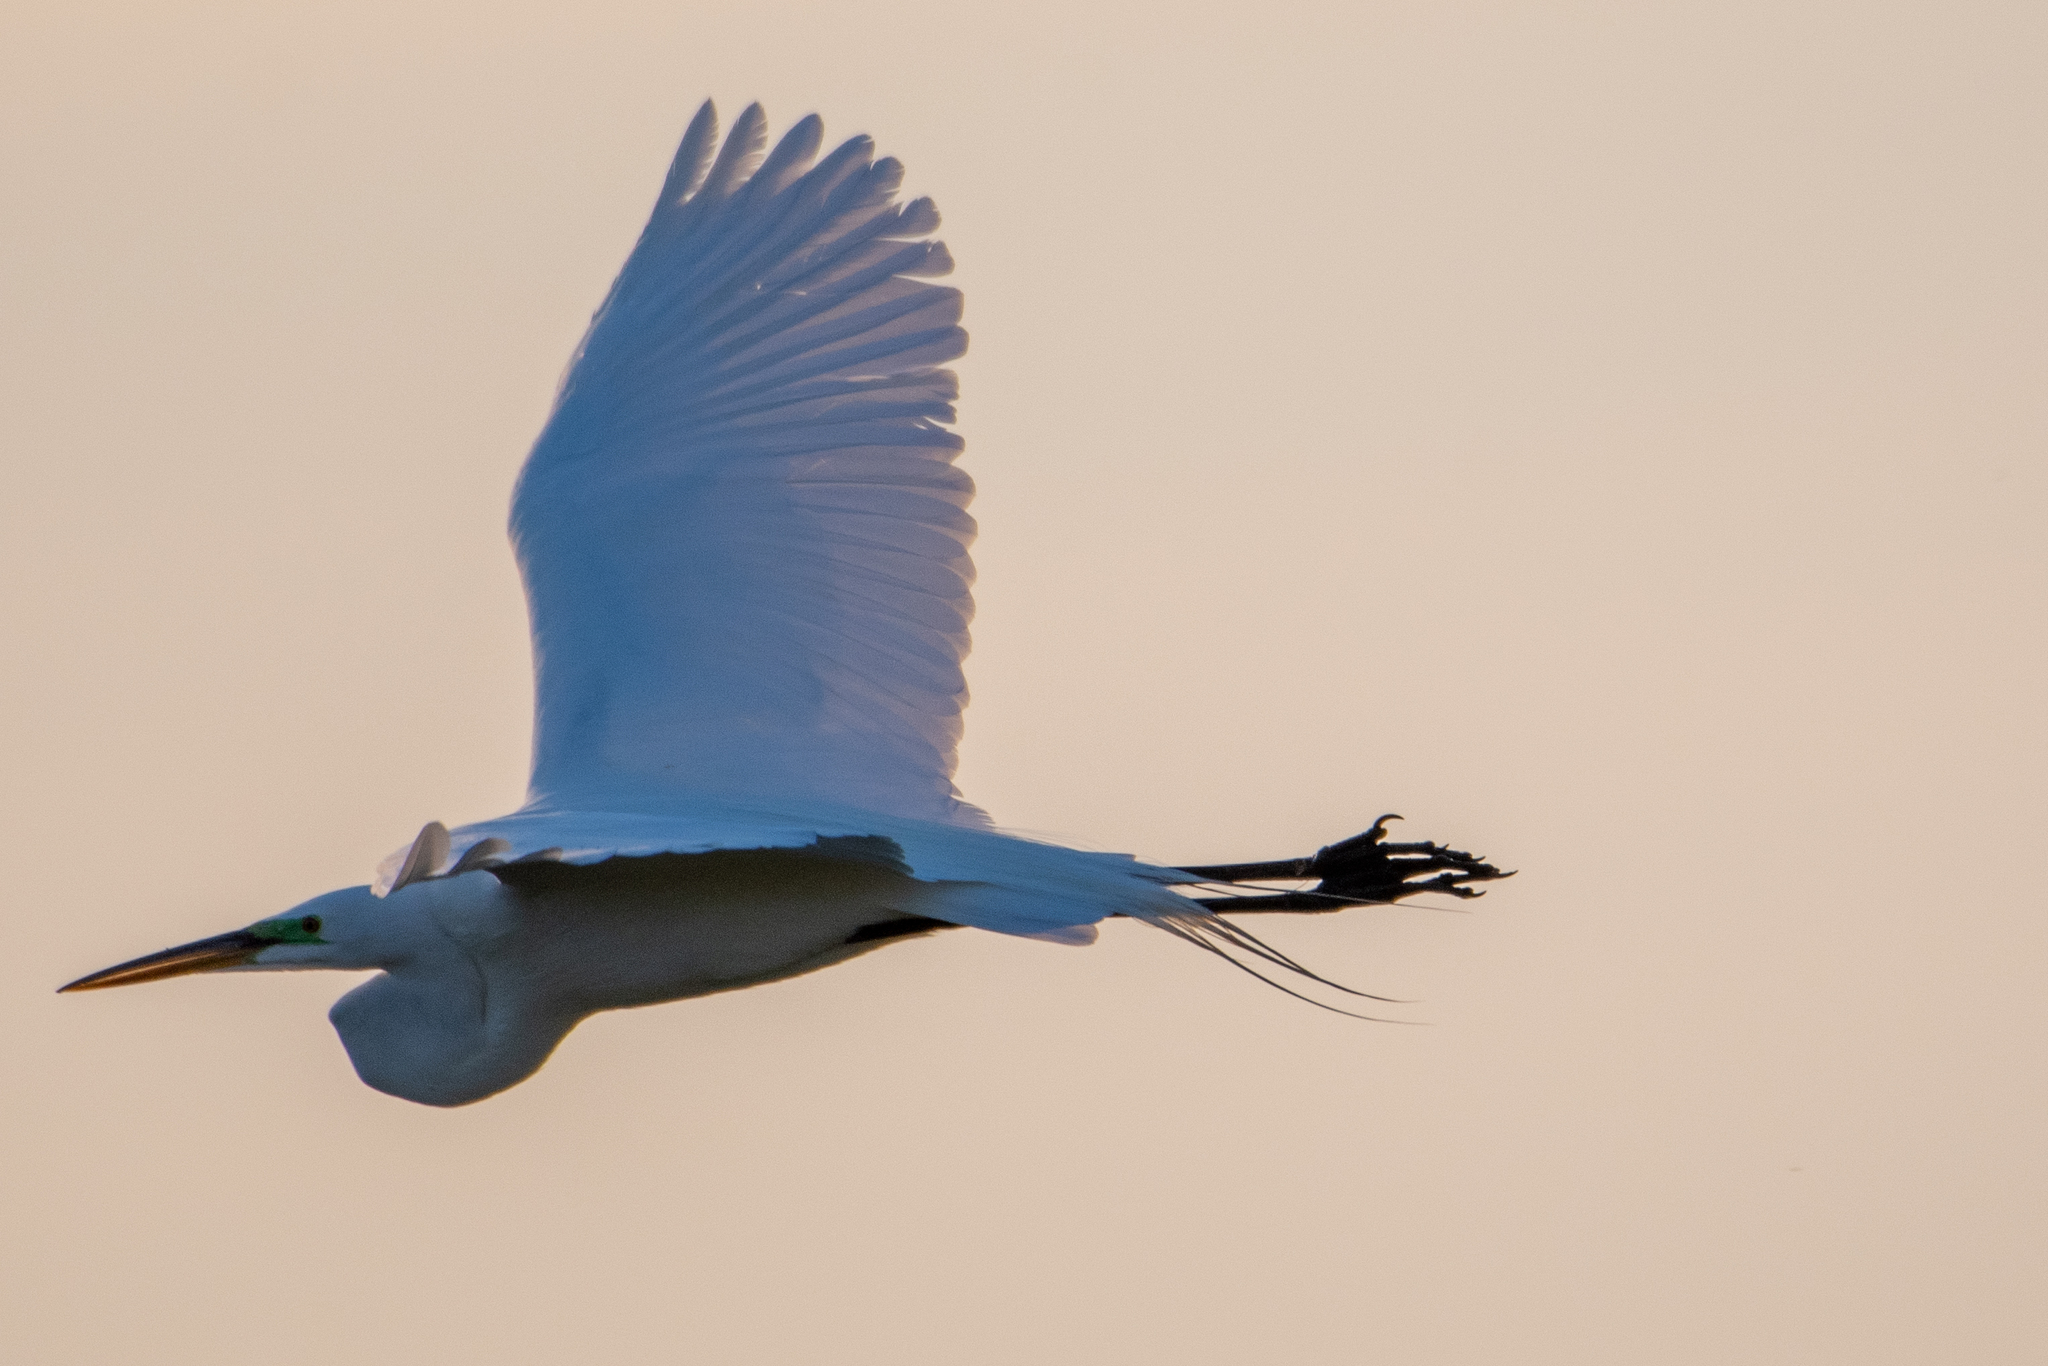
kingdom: Animalia
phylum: Chordata
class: Aves
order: Pelecaniformes
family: Ardeidae
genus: Ardea
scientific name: Ardea alba
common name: Great egret
